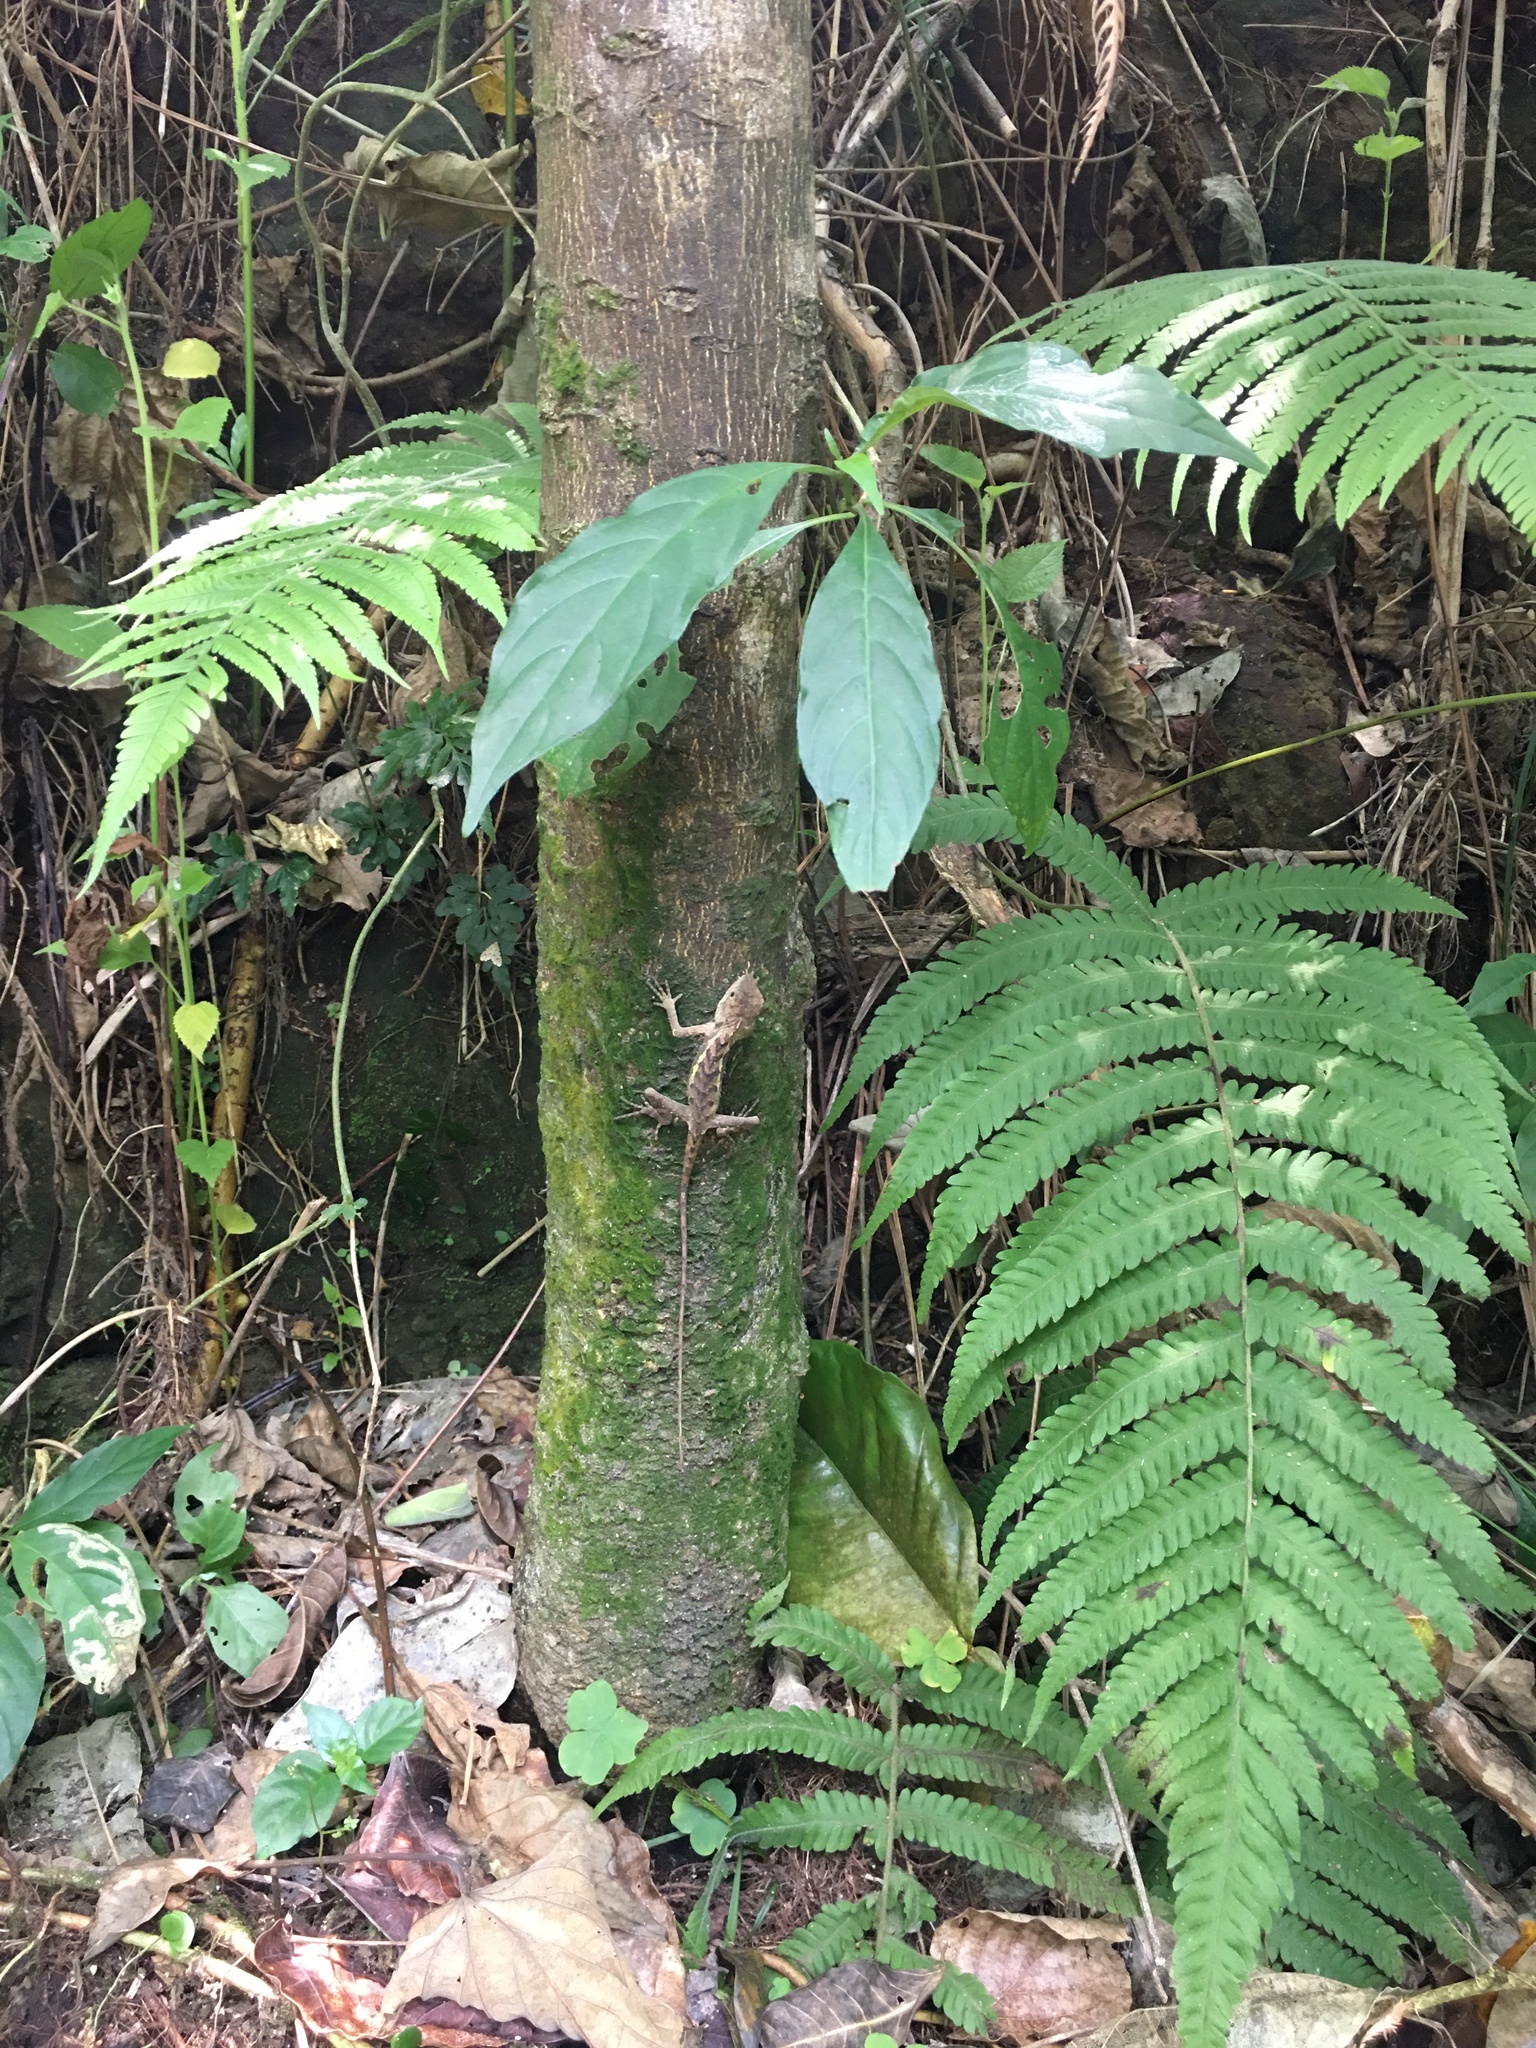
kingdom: Animalia
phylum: Chordata
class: Squamata
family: Agamidae
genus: Diploderma
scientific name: Diploderma swinhonis
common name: Taiwan japalure
